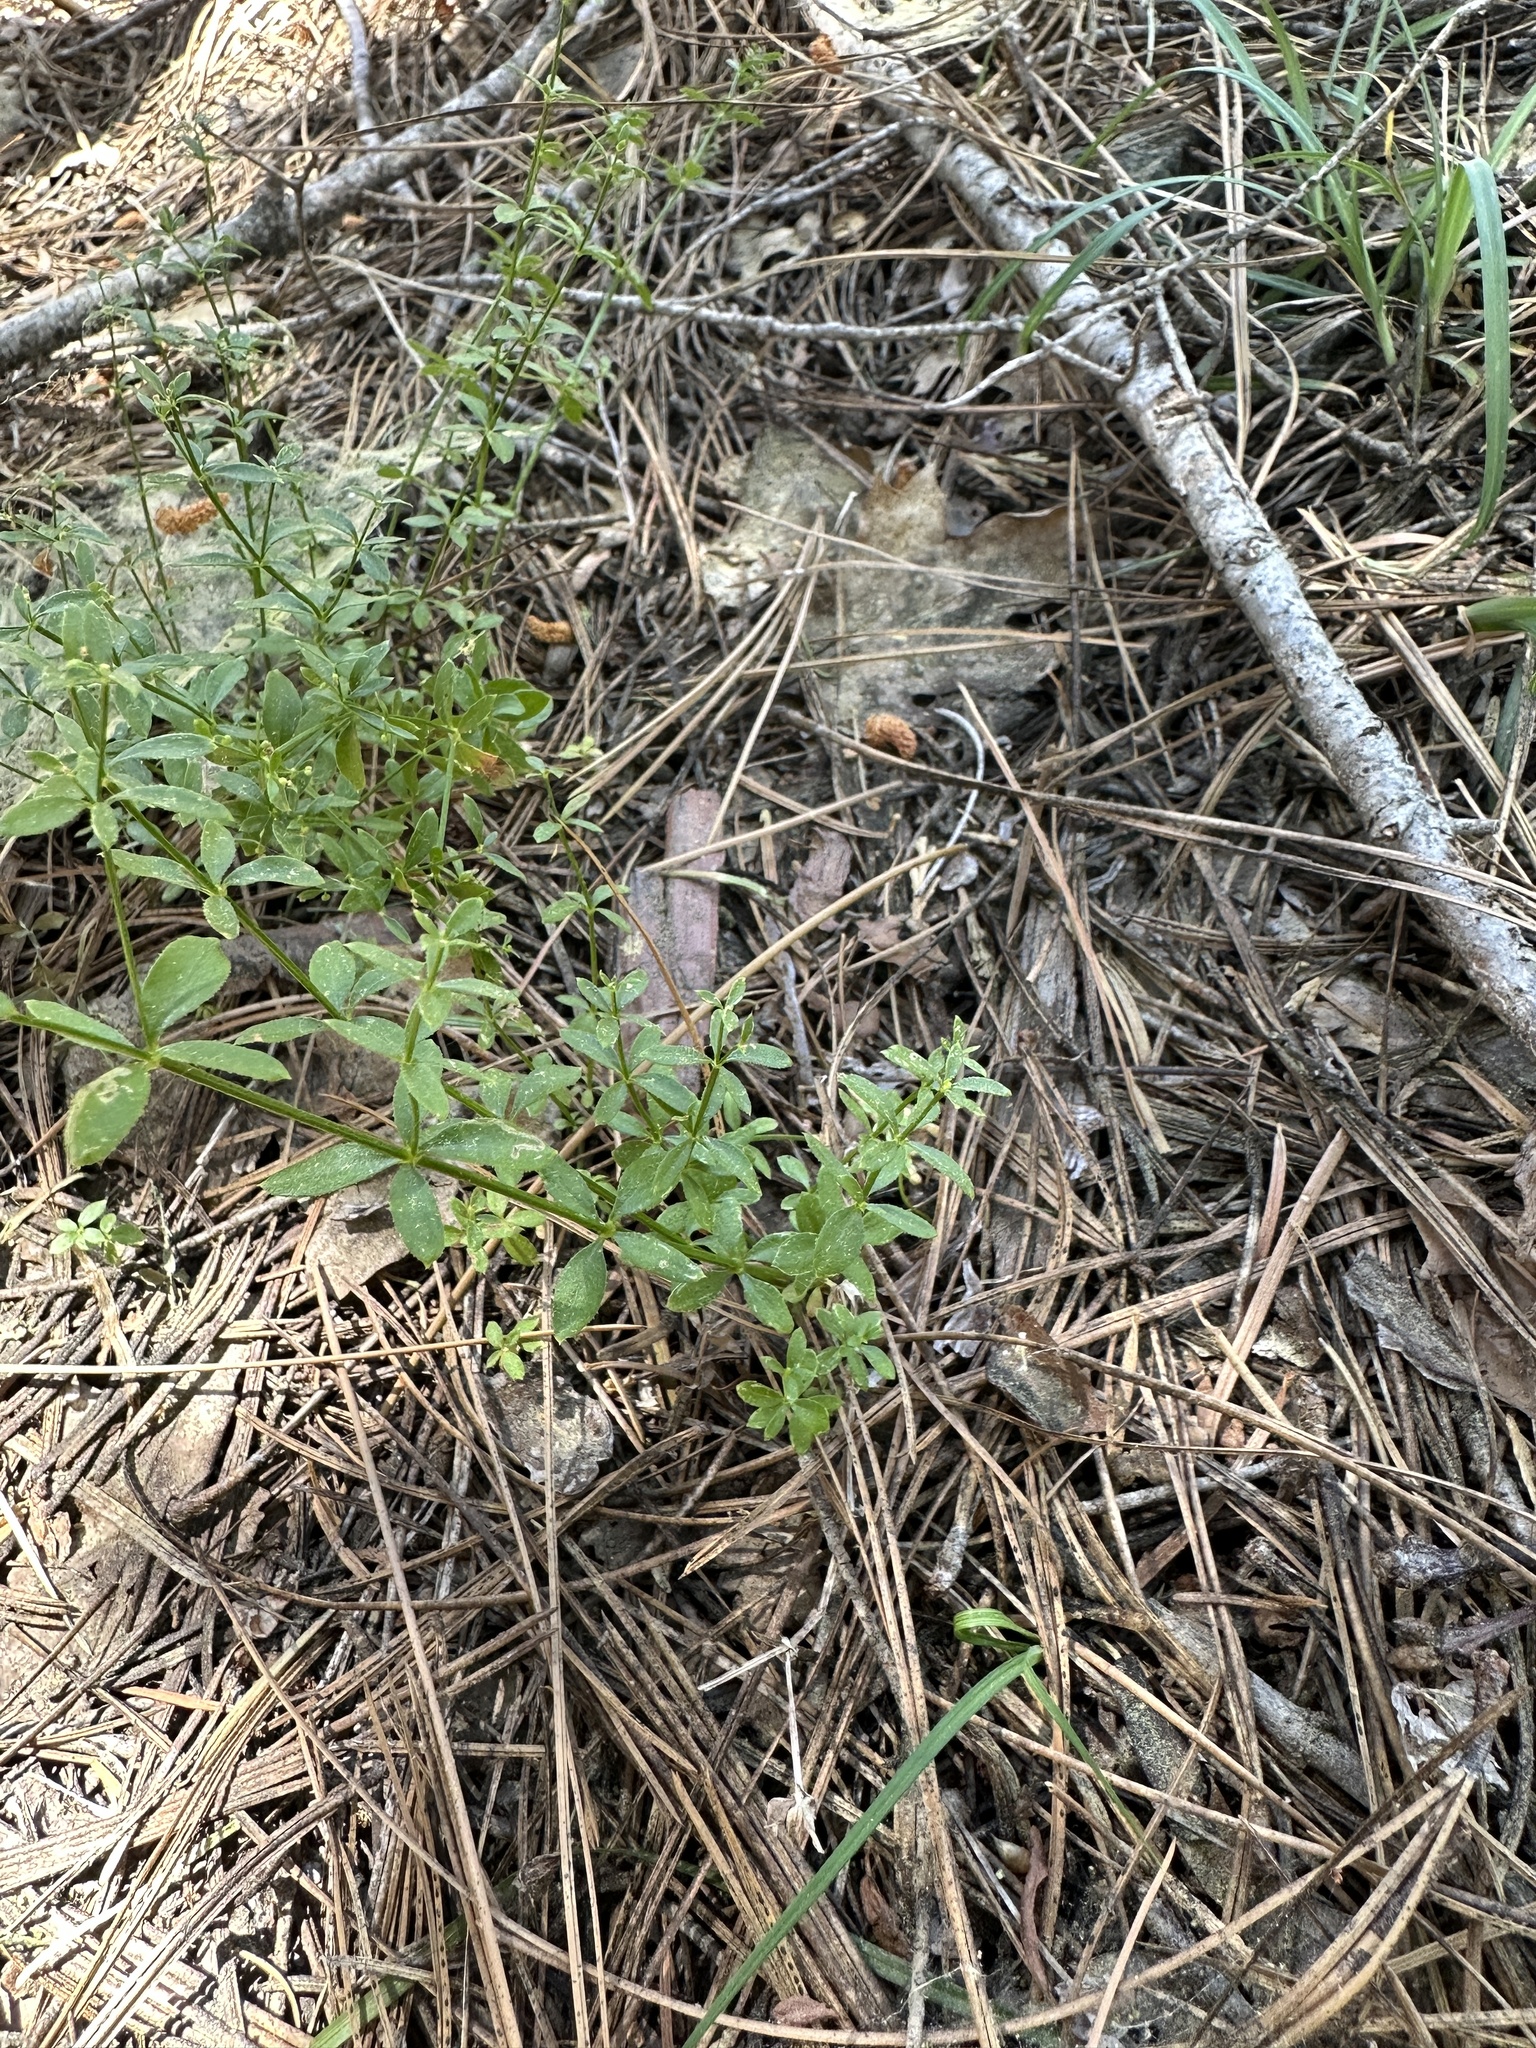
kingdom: Plantae
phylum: Tracheophyta
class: Magnoliopsida
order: Lamiales
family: Orobanchaceae
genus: Aphyllon
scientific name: Aphyllon epigalium
